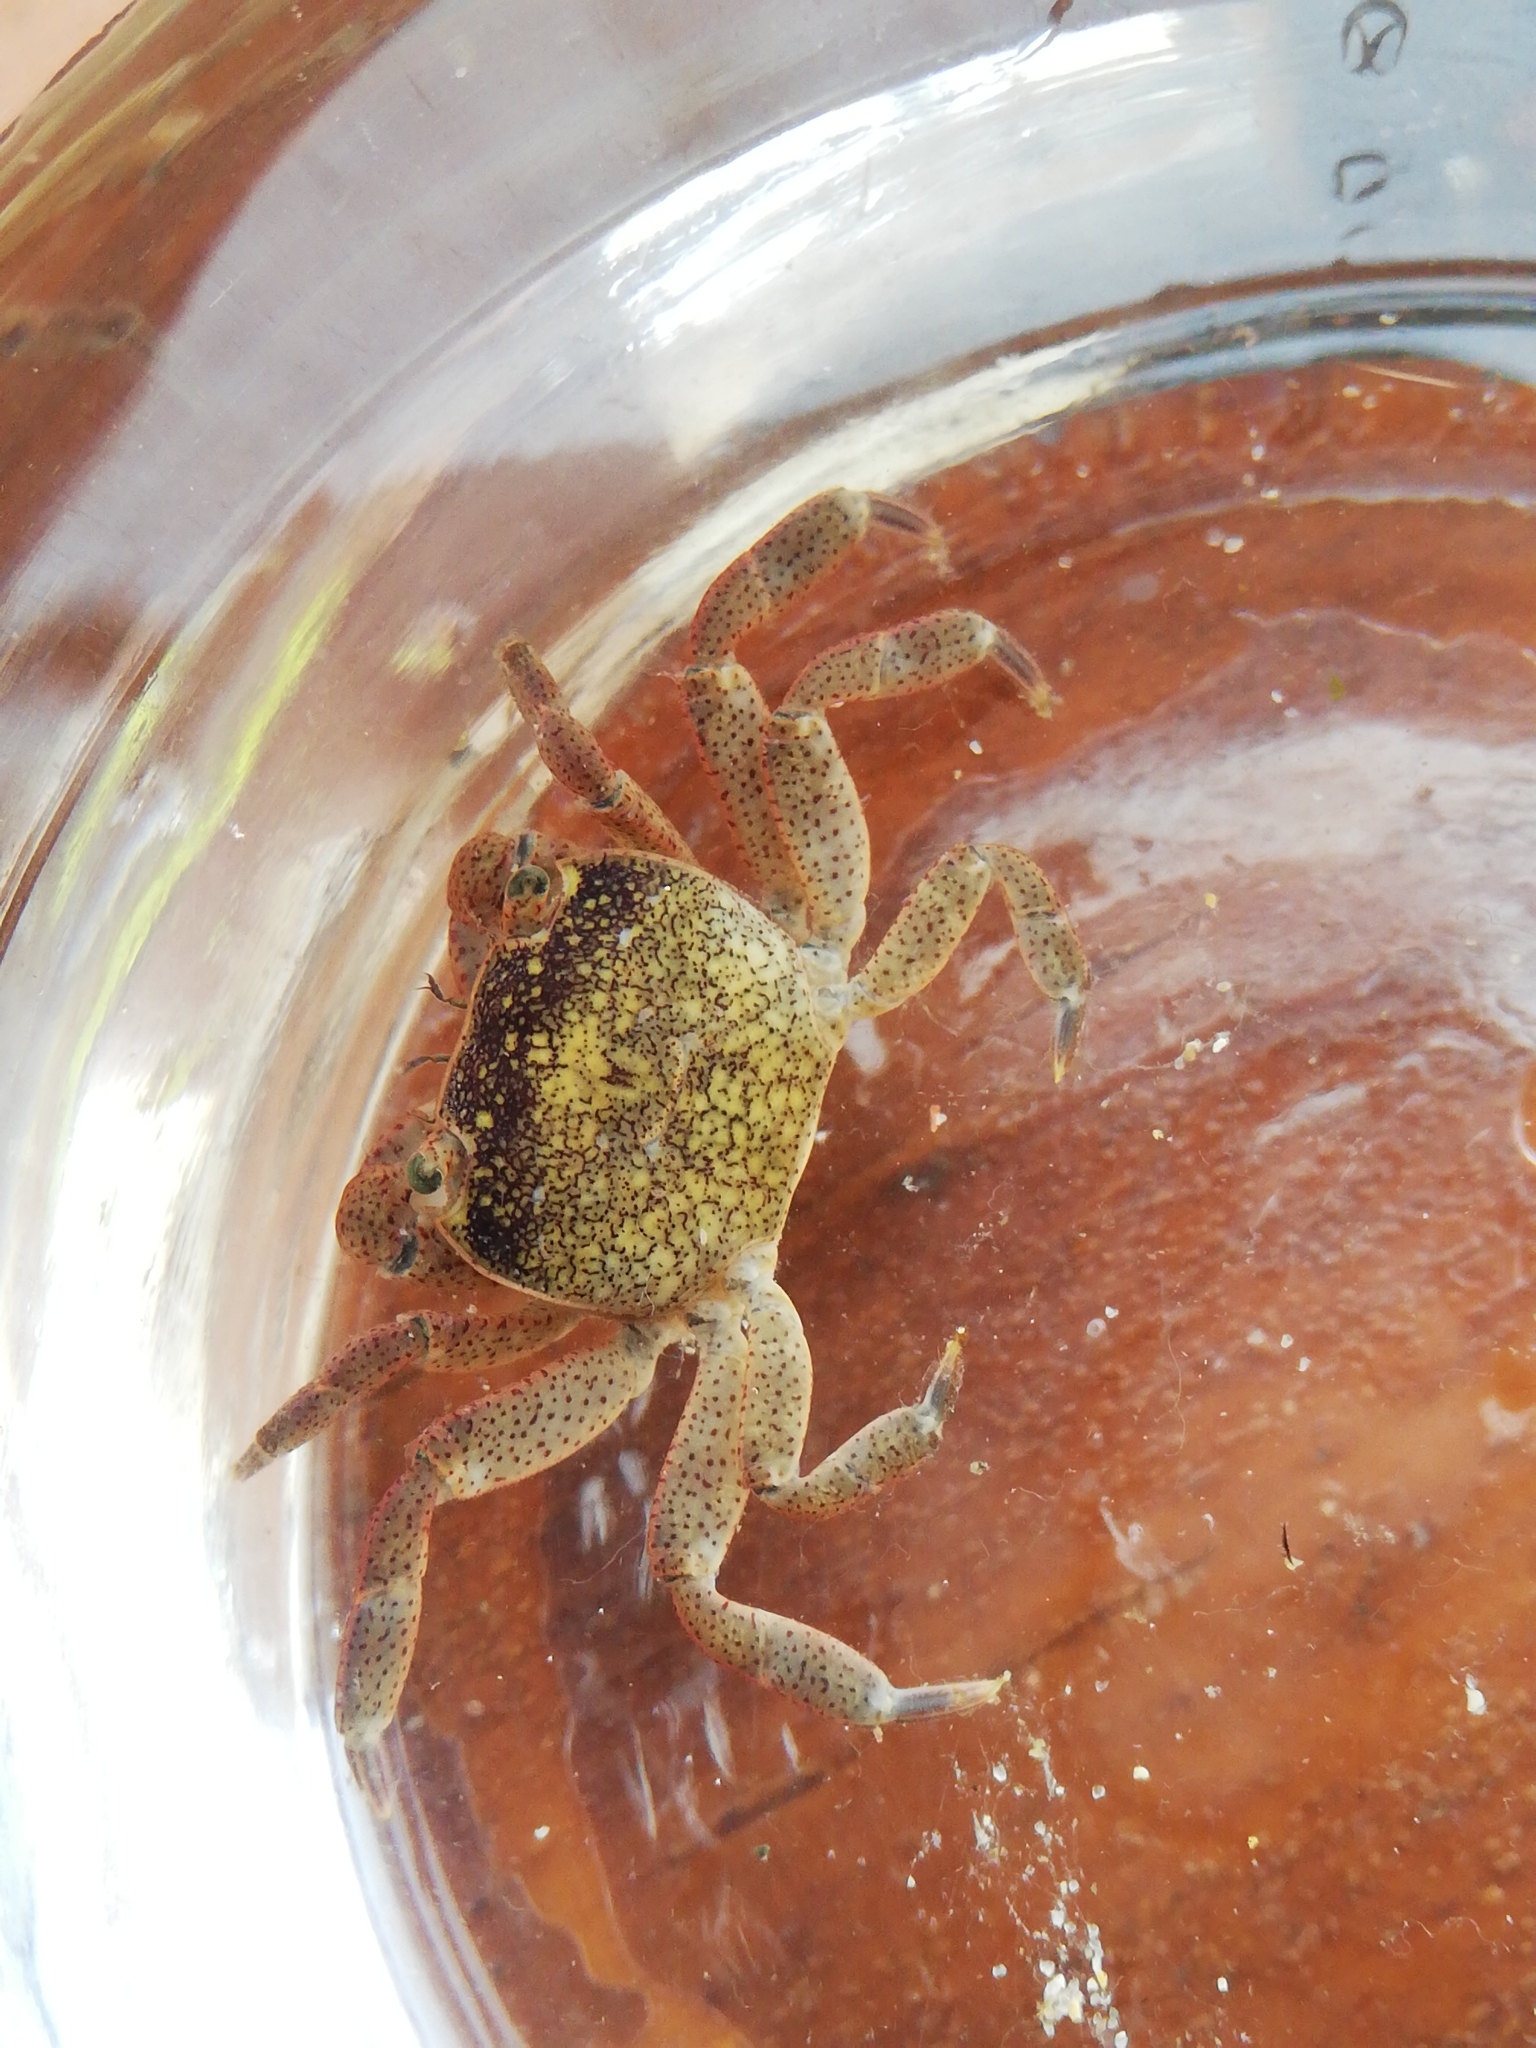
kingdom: Animalia
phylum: Arthropoda
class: Malacostraca
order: Decapoda
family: Varunidae
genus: Cyclograpsus
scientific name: Cyclograpsus punctatus
